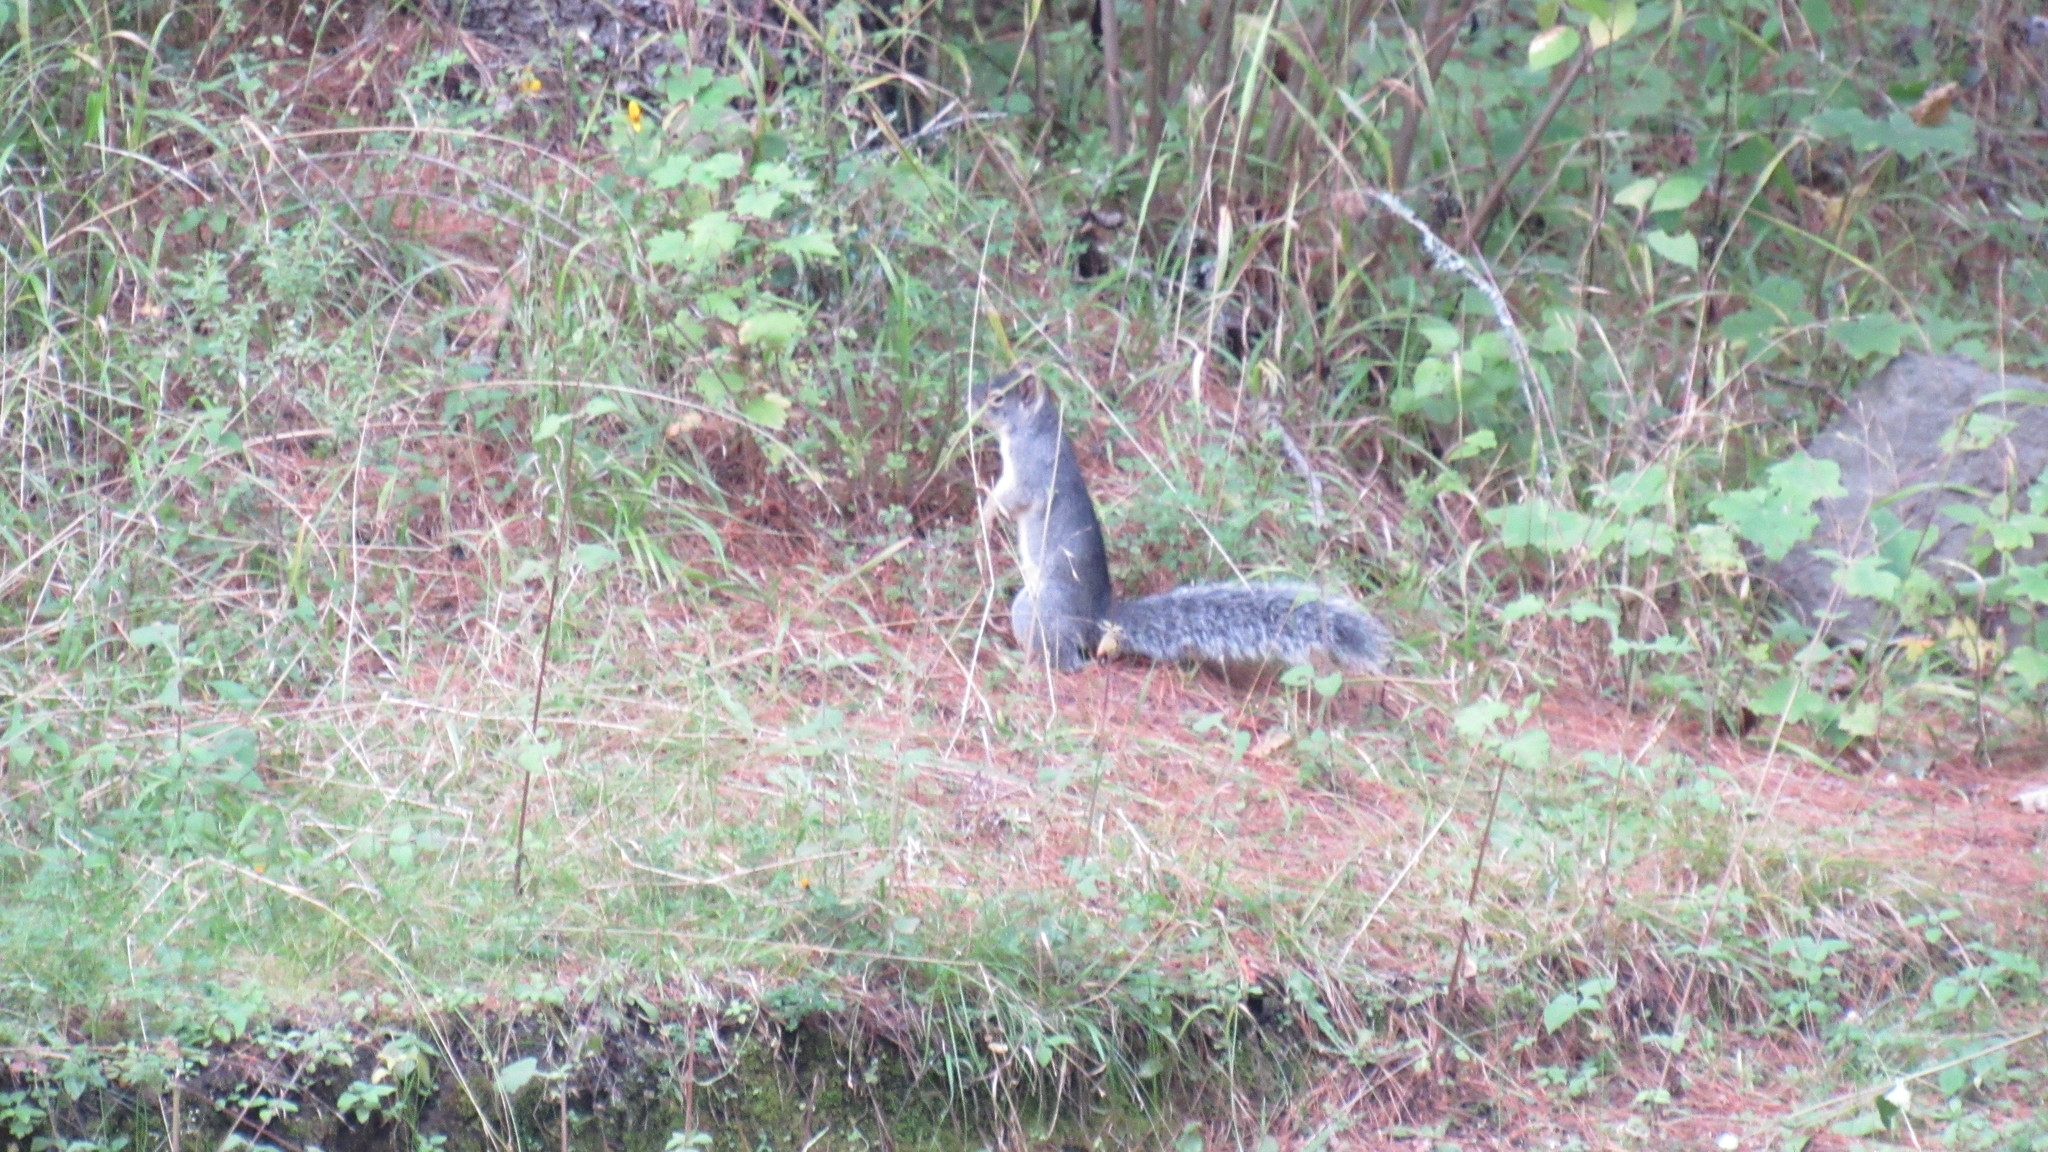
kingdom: Animalia
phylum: Chordata
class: Mammalia
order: Rodentia
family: Sciuridae
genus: Sciurus
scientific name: Sciurus oculatus
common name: Peters's squirrel
